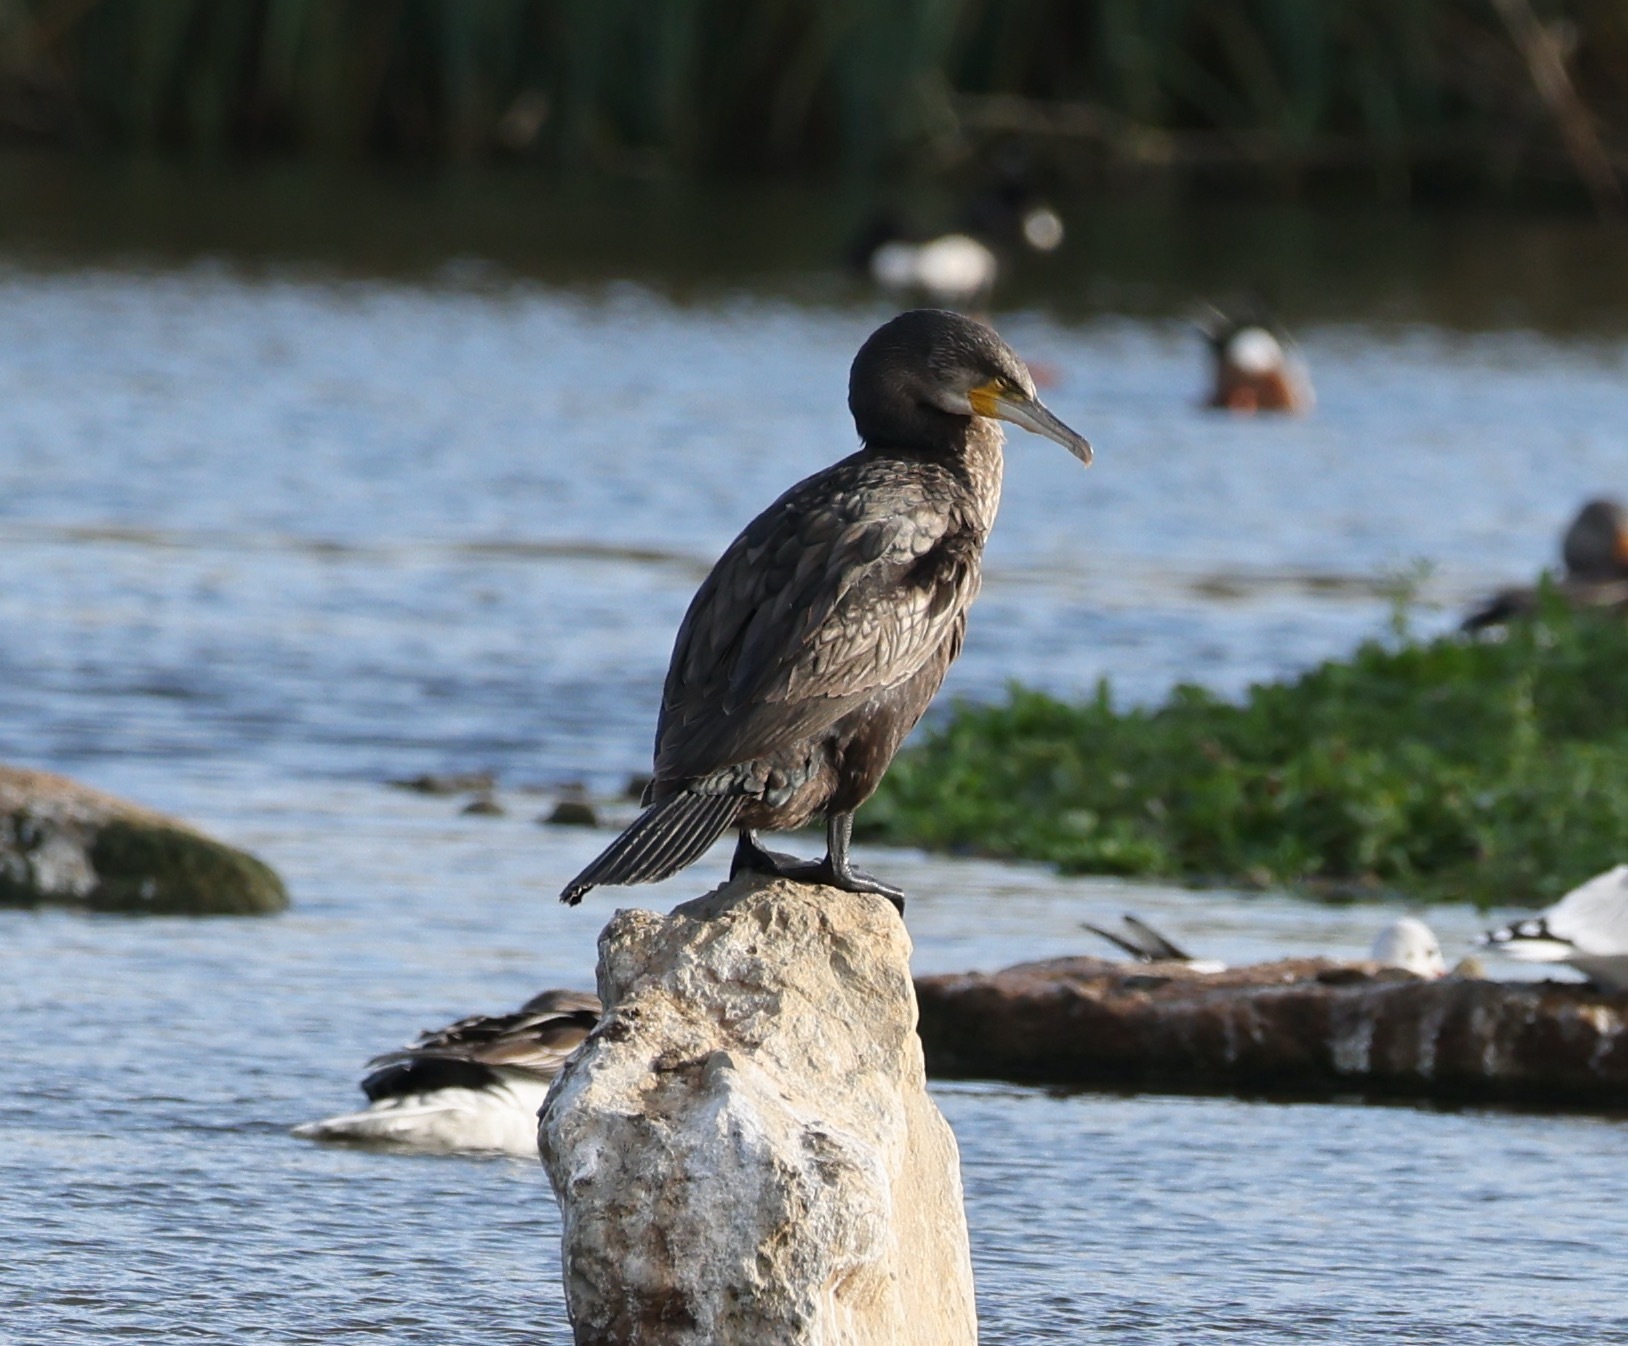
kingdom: Animalia
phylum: Chordata
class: Aves
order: Suliformes
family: Phalacrocoracidae
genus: Phalacrocorax
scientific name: Phalacrocorax carbo
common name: Great cormorant
